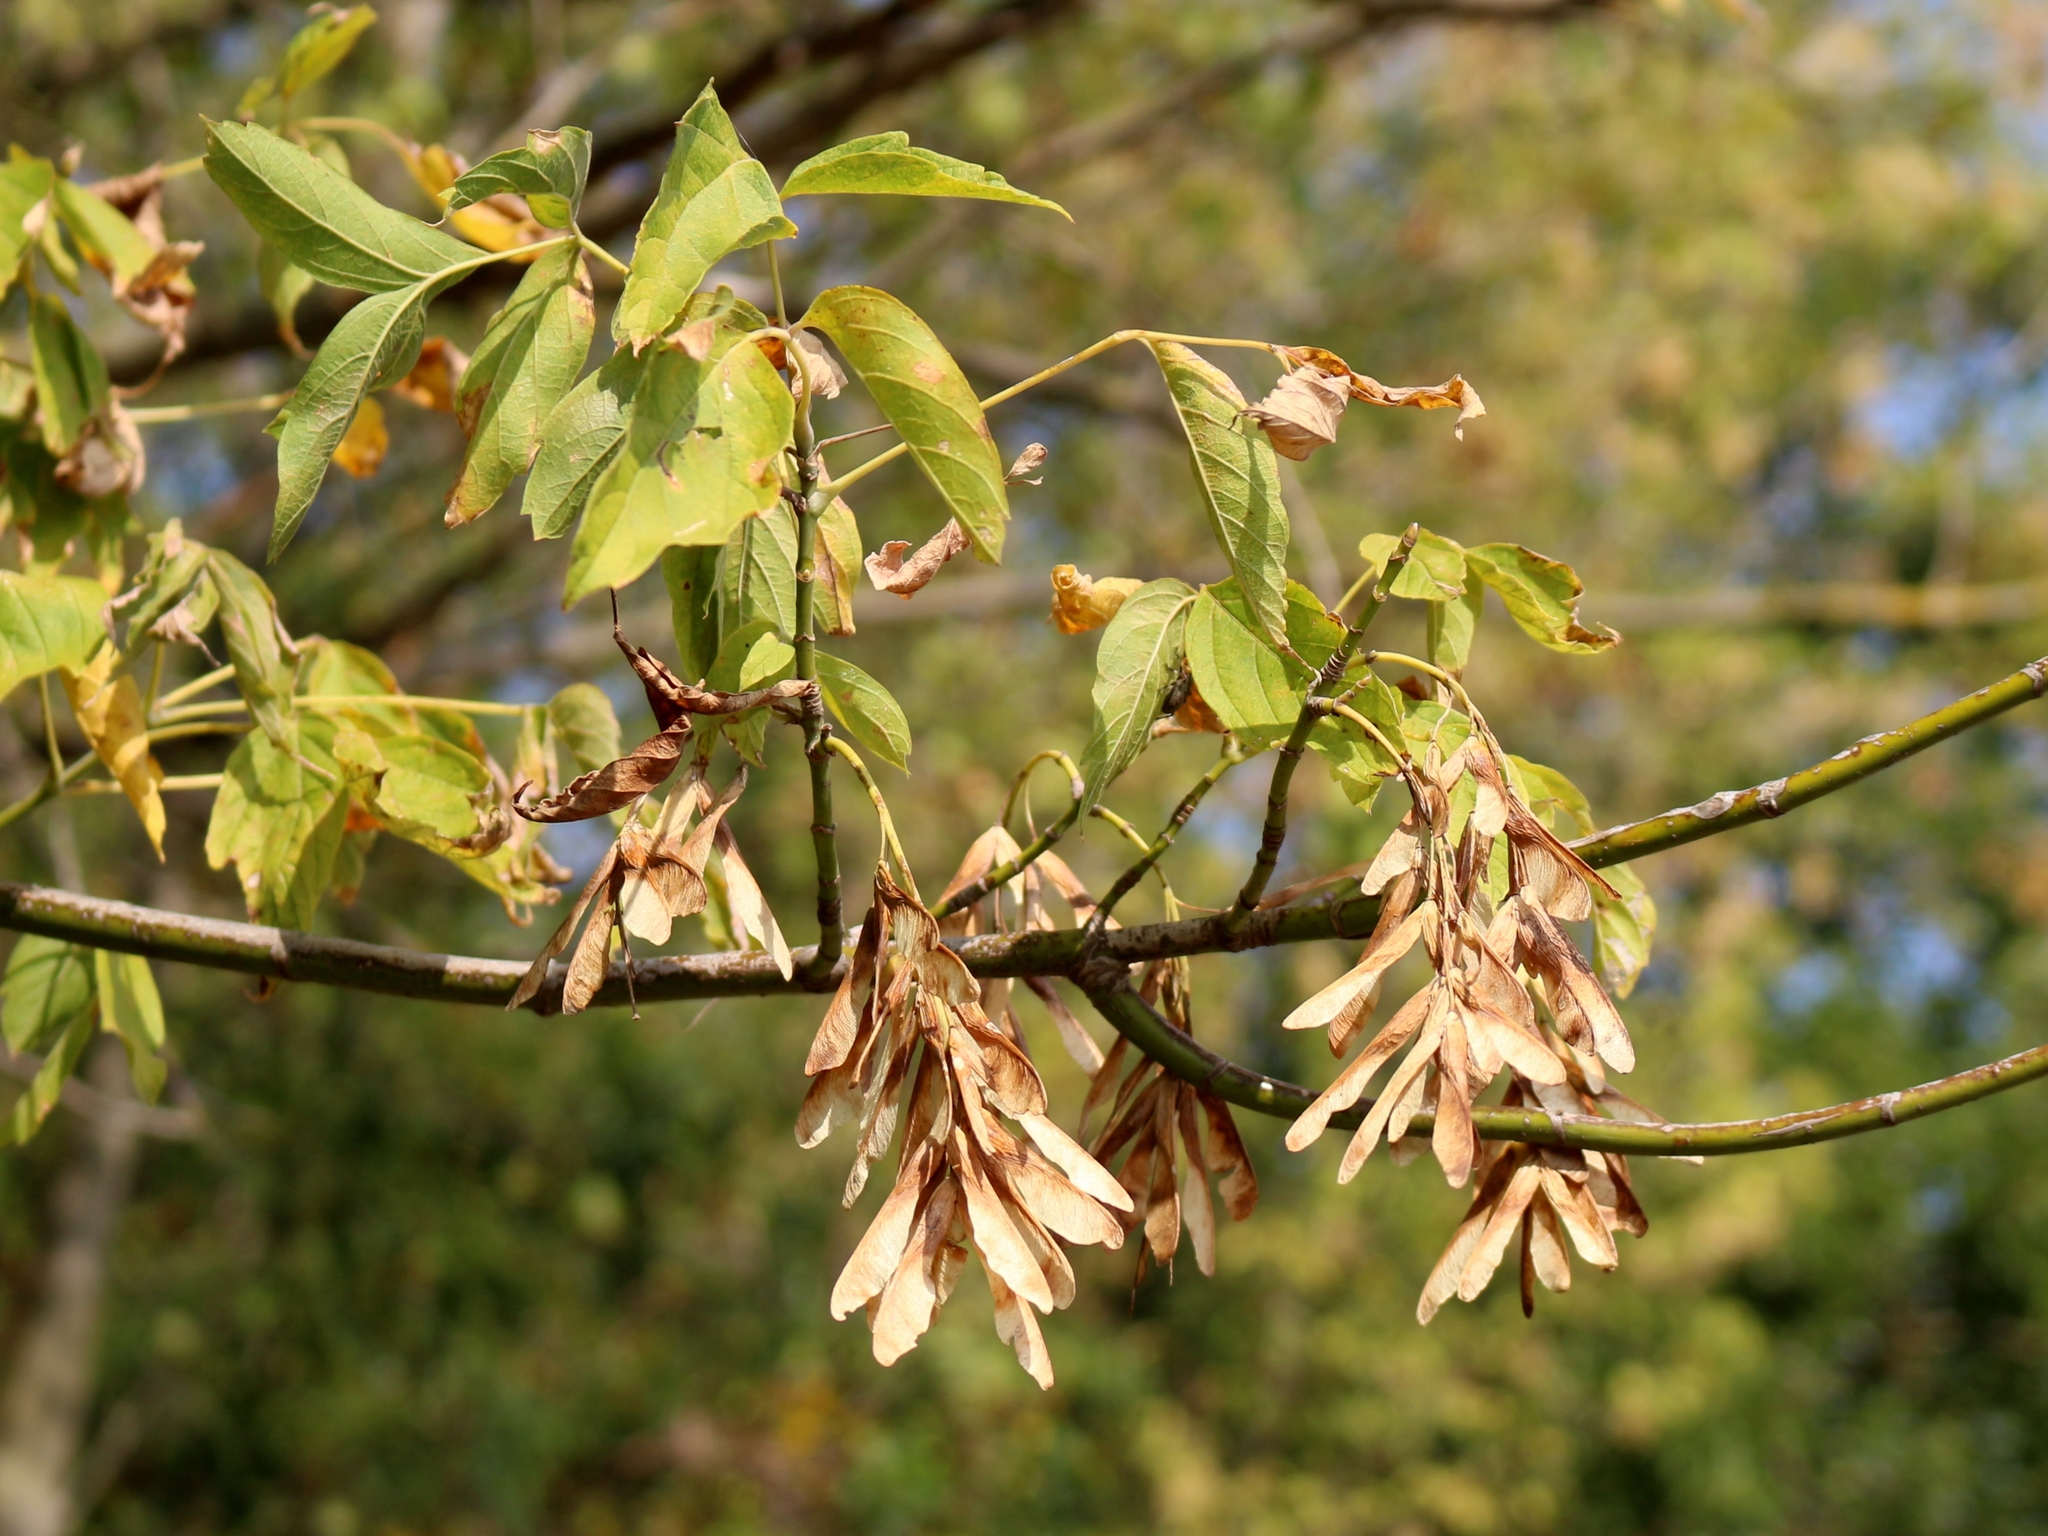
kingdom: Plantae
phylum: Tracheophyta
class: Magnoliopsida
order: Sapindales
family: Sapindaceae
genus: Acer
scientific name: Acer negundo
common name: Ashleaf maple
